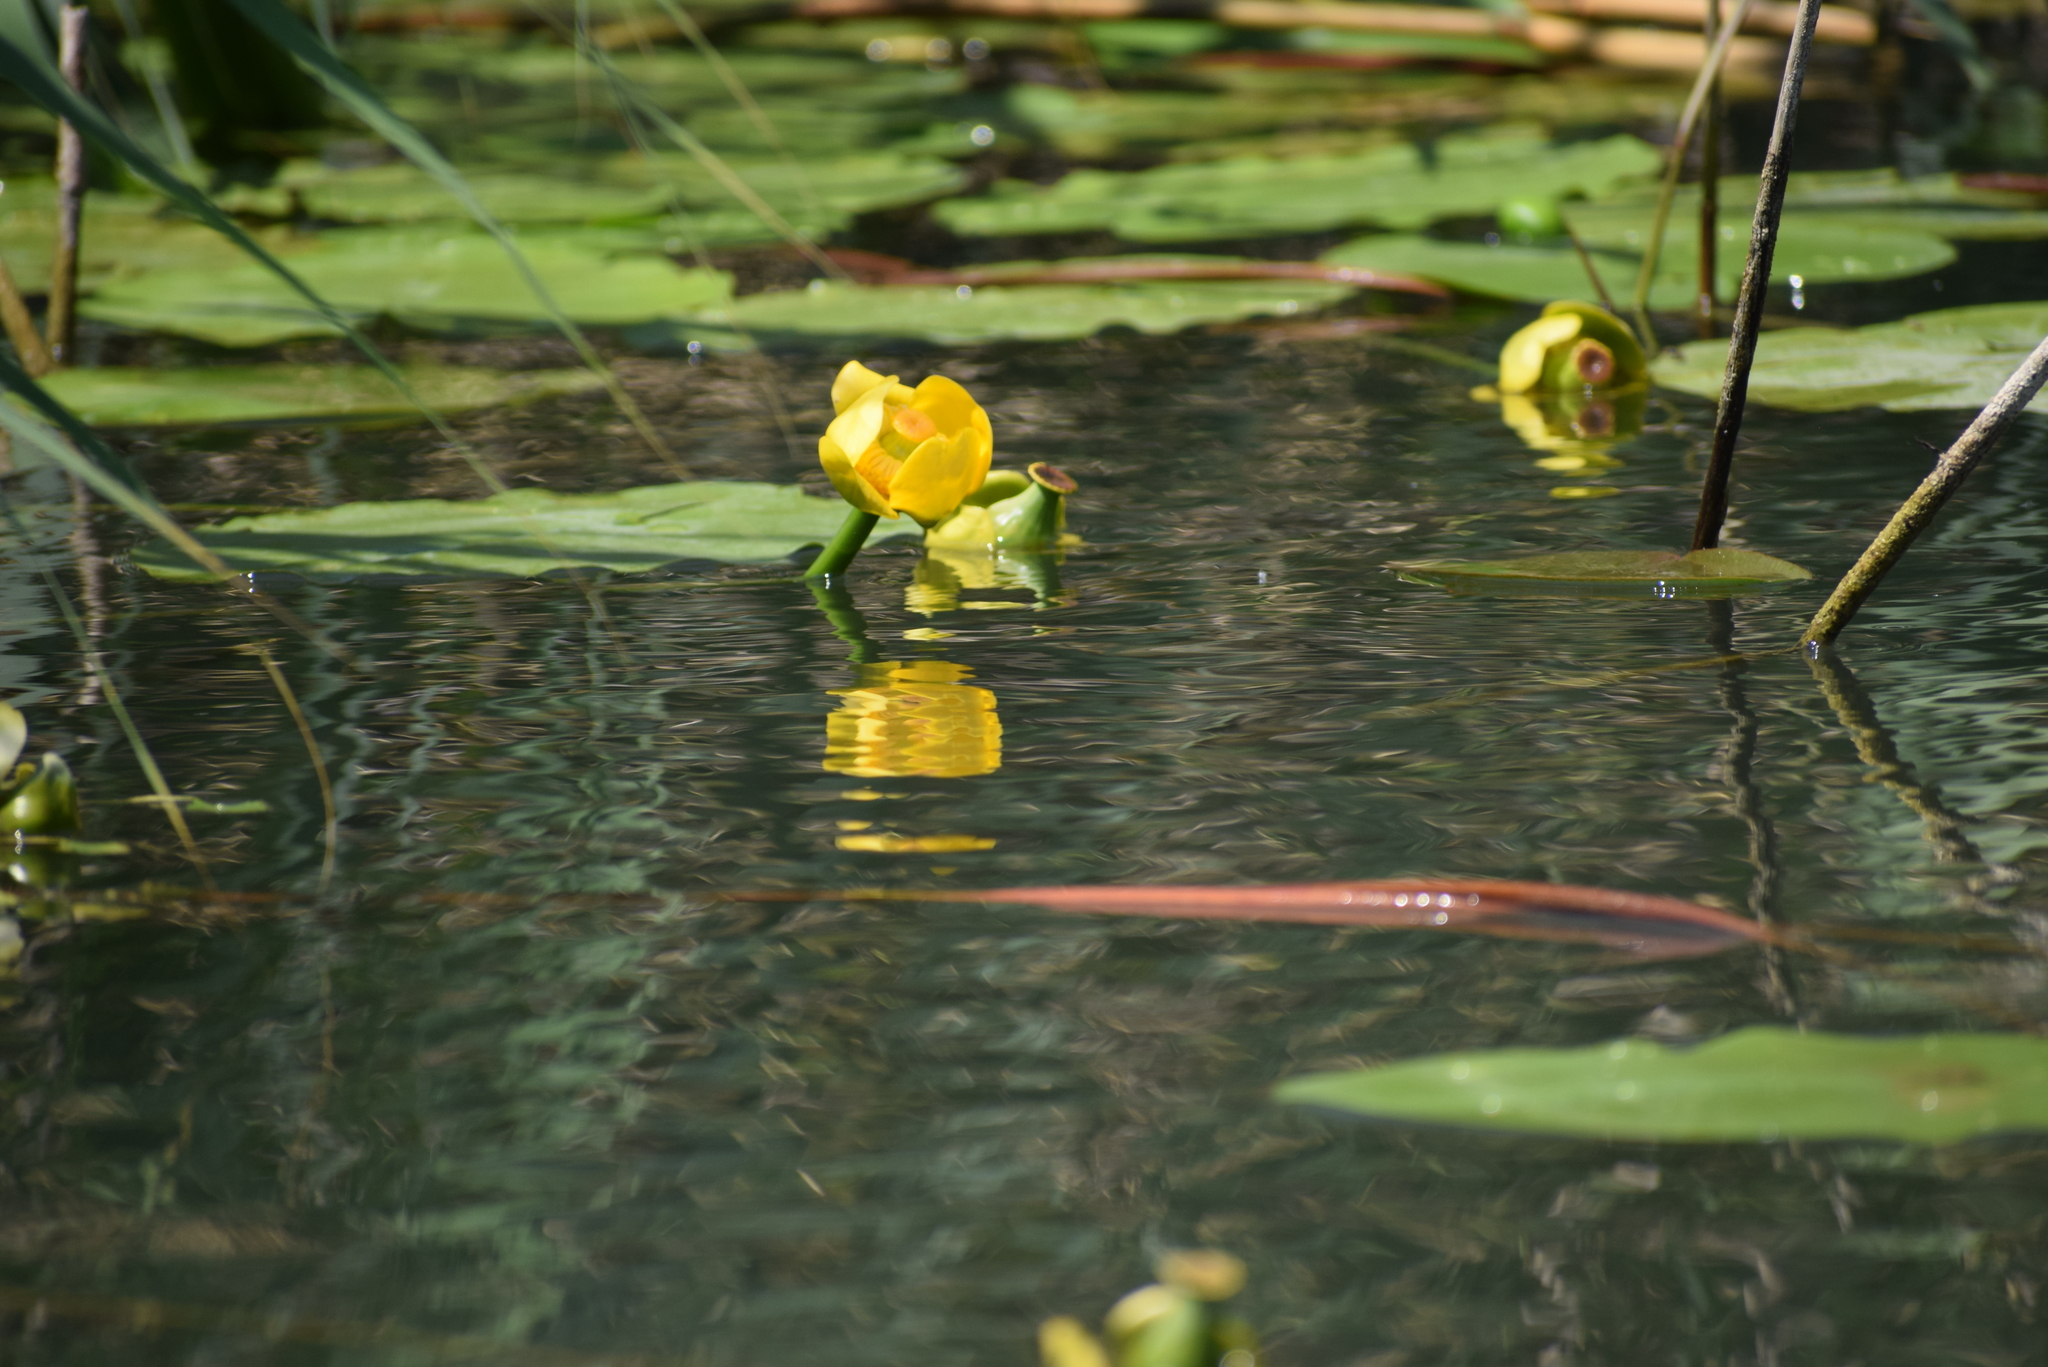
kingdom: Plantae
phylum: Tracheophyta
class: Magnoliopsida
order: Nymphaeales
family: Nymphaeaceae
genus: Nuphar
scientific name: Nuphar lutea
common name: Yellow water-lily
